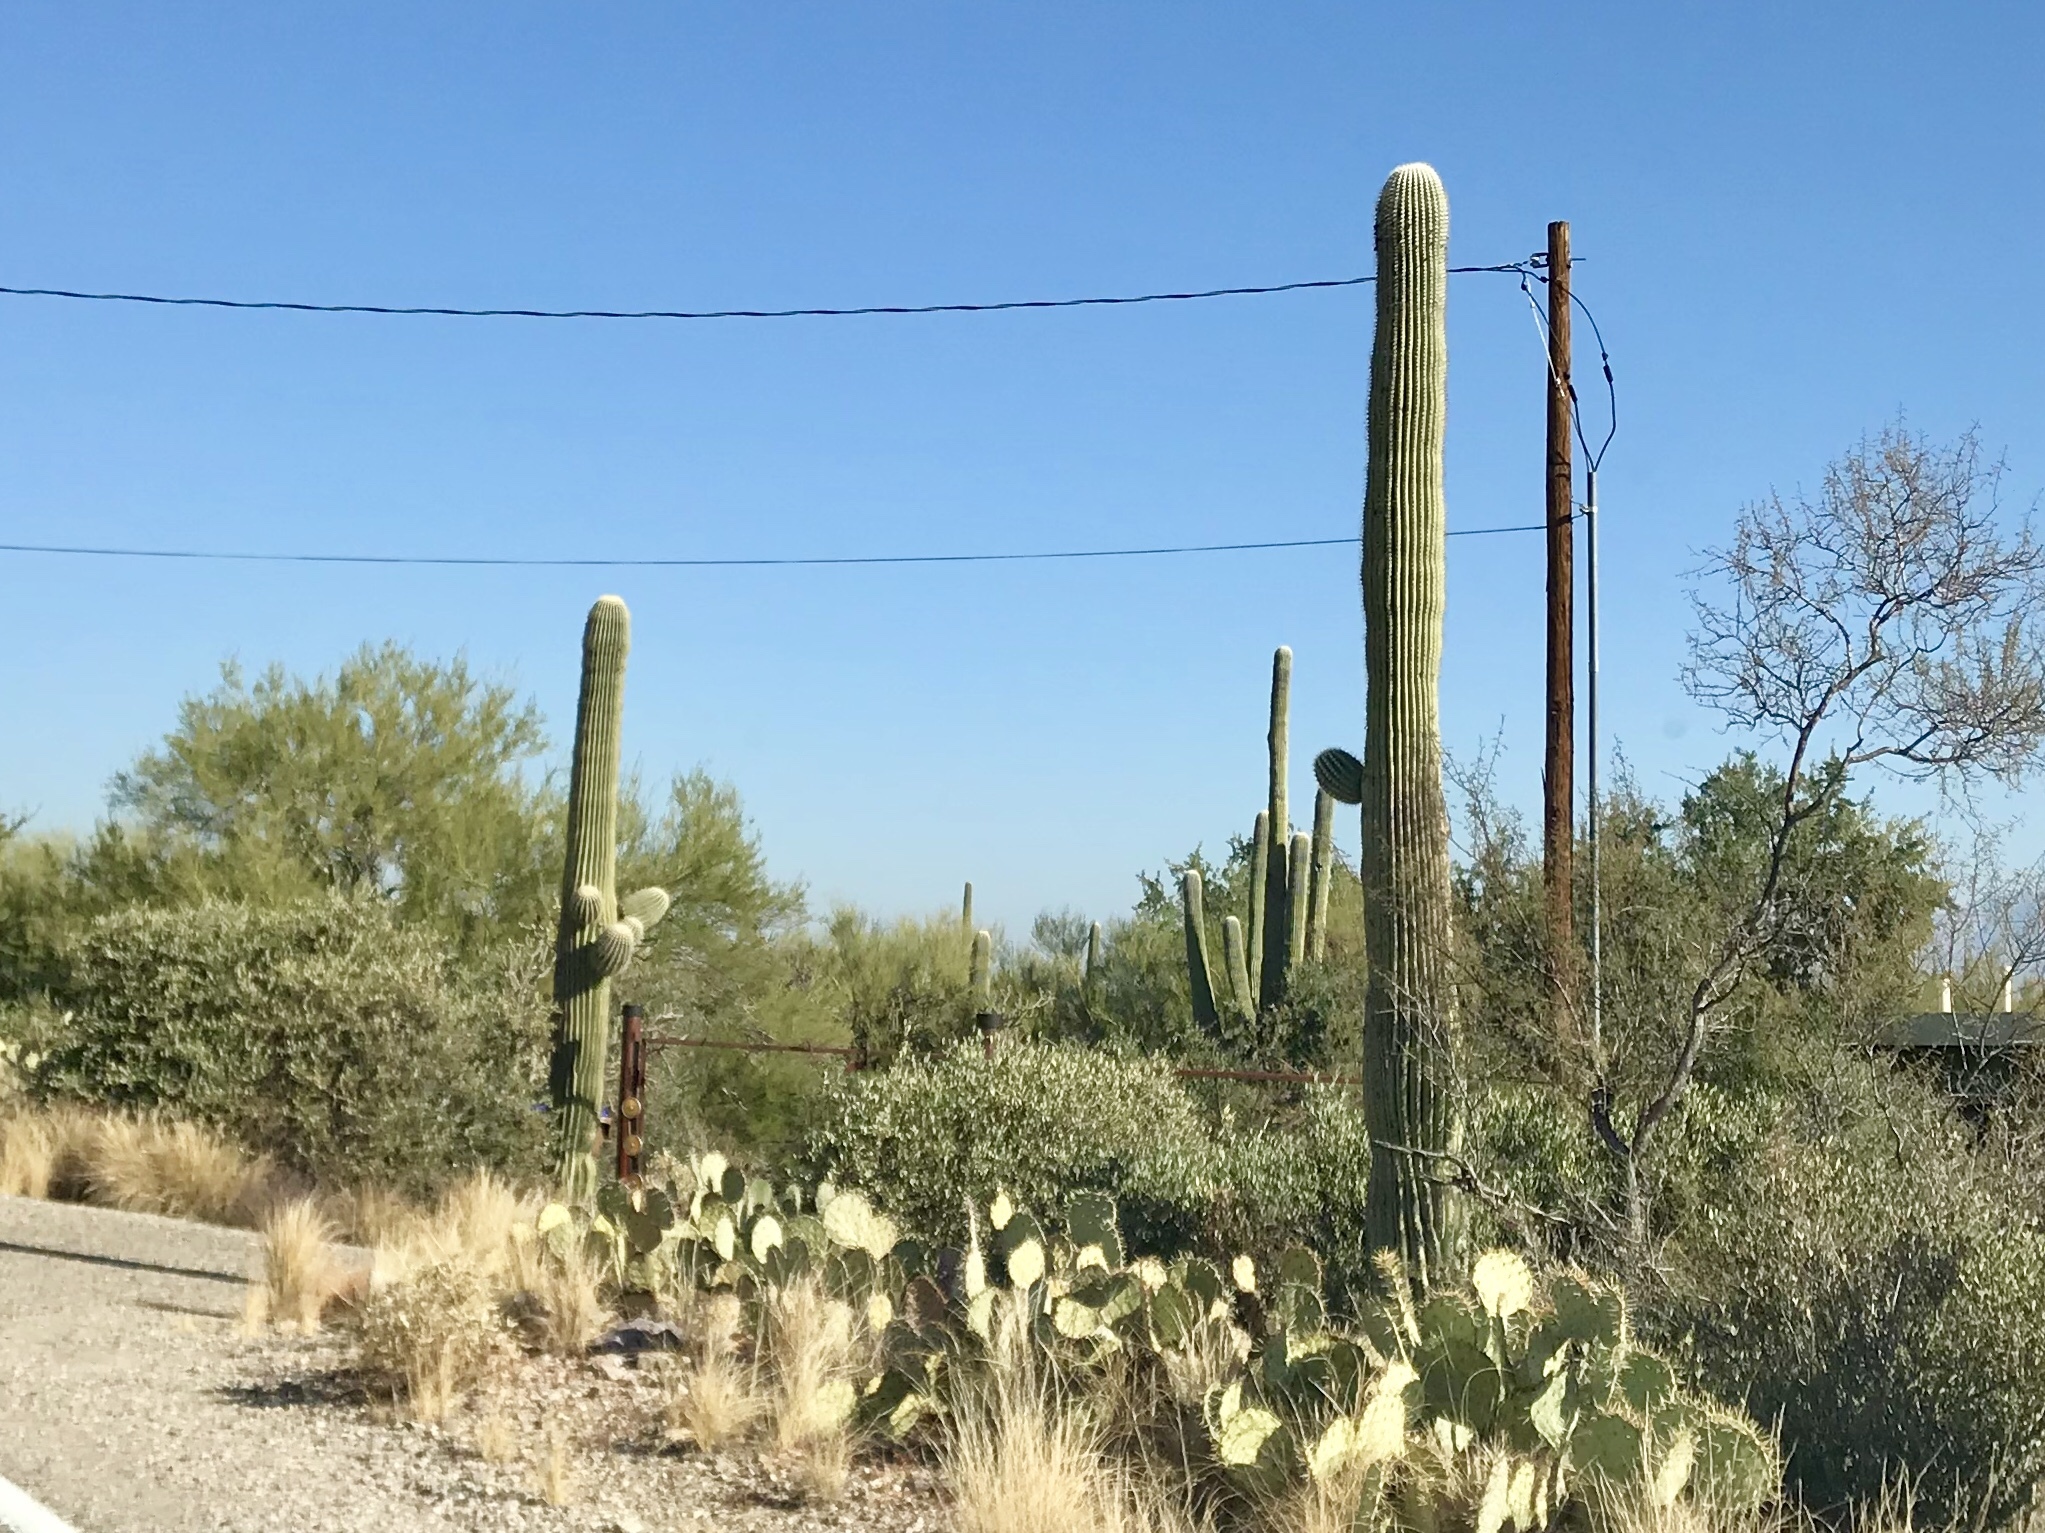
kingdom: Plantae
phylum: Tracheophyta
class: Magnoliopsida
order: Caryophyllales
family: Cactaceae
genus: Carnegiea
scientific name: Carnegiea gigantea
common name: Saguaro
